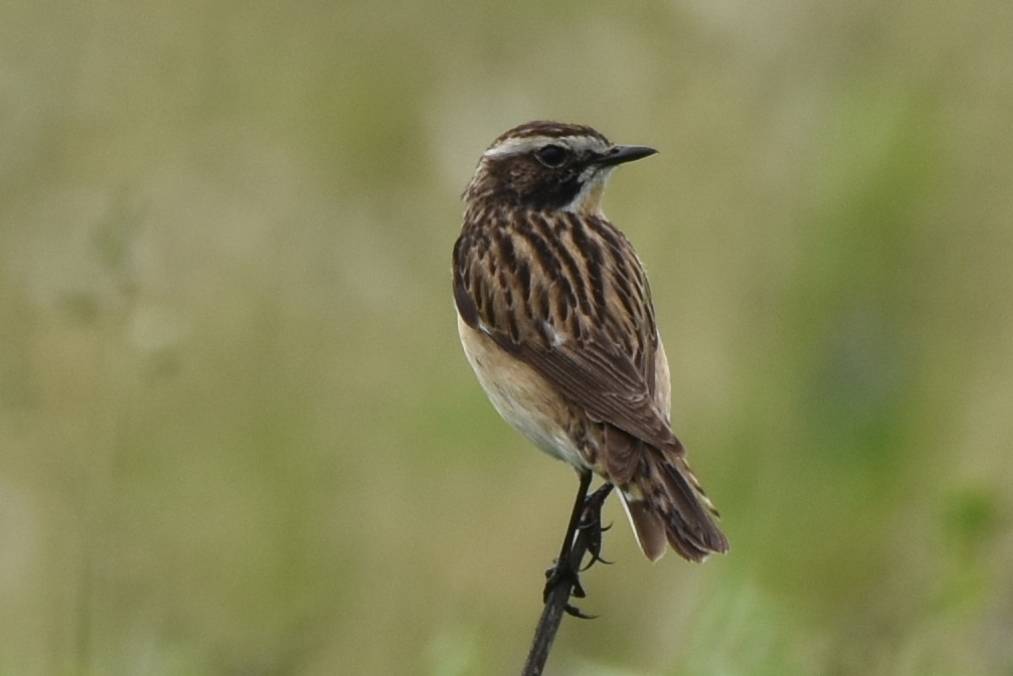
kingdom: Animalia
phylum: Chordata
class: Aves
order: Passeriformes
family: Muscicapidae
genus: Saxicola
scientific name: Saxicola rubetra
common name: Whinchat
